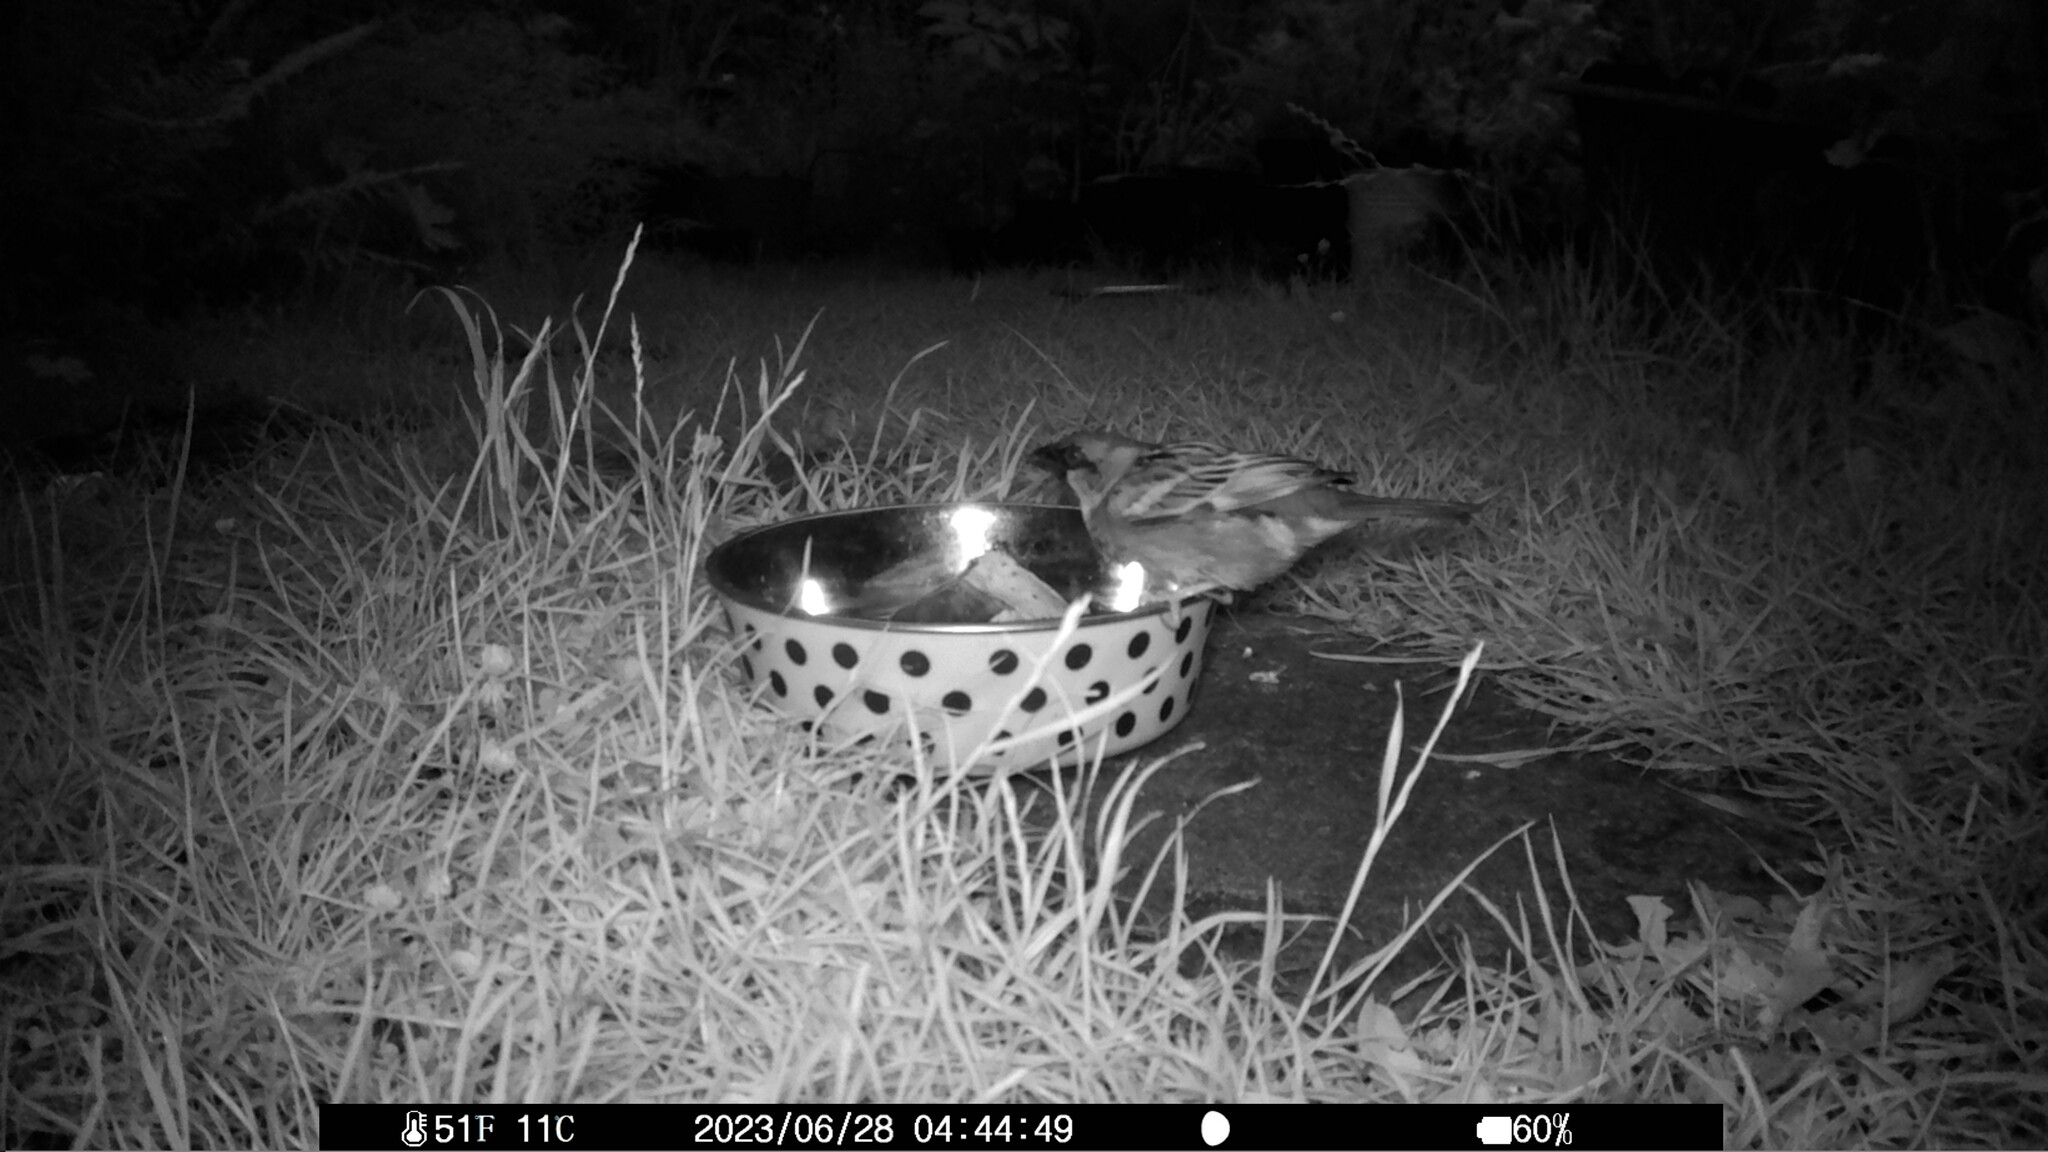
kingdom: Animalia
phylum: Chordata
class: Aves
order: Passeriformes
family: Passeridae
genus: Passer
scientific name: Passer domesticus
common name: House sparrow
